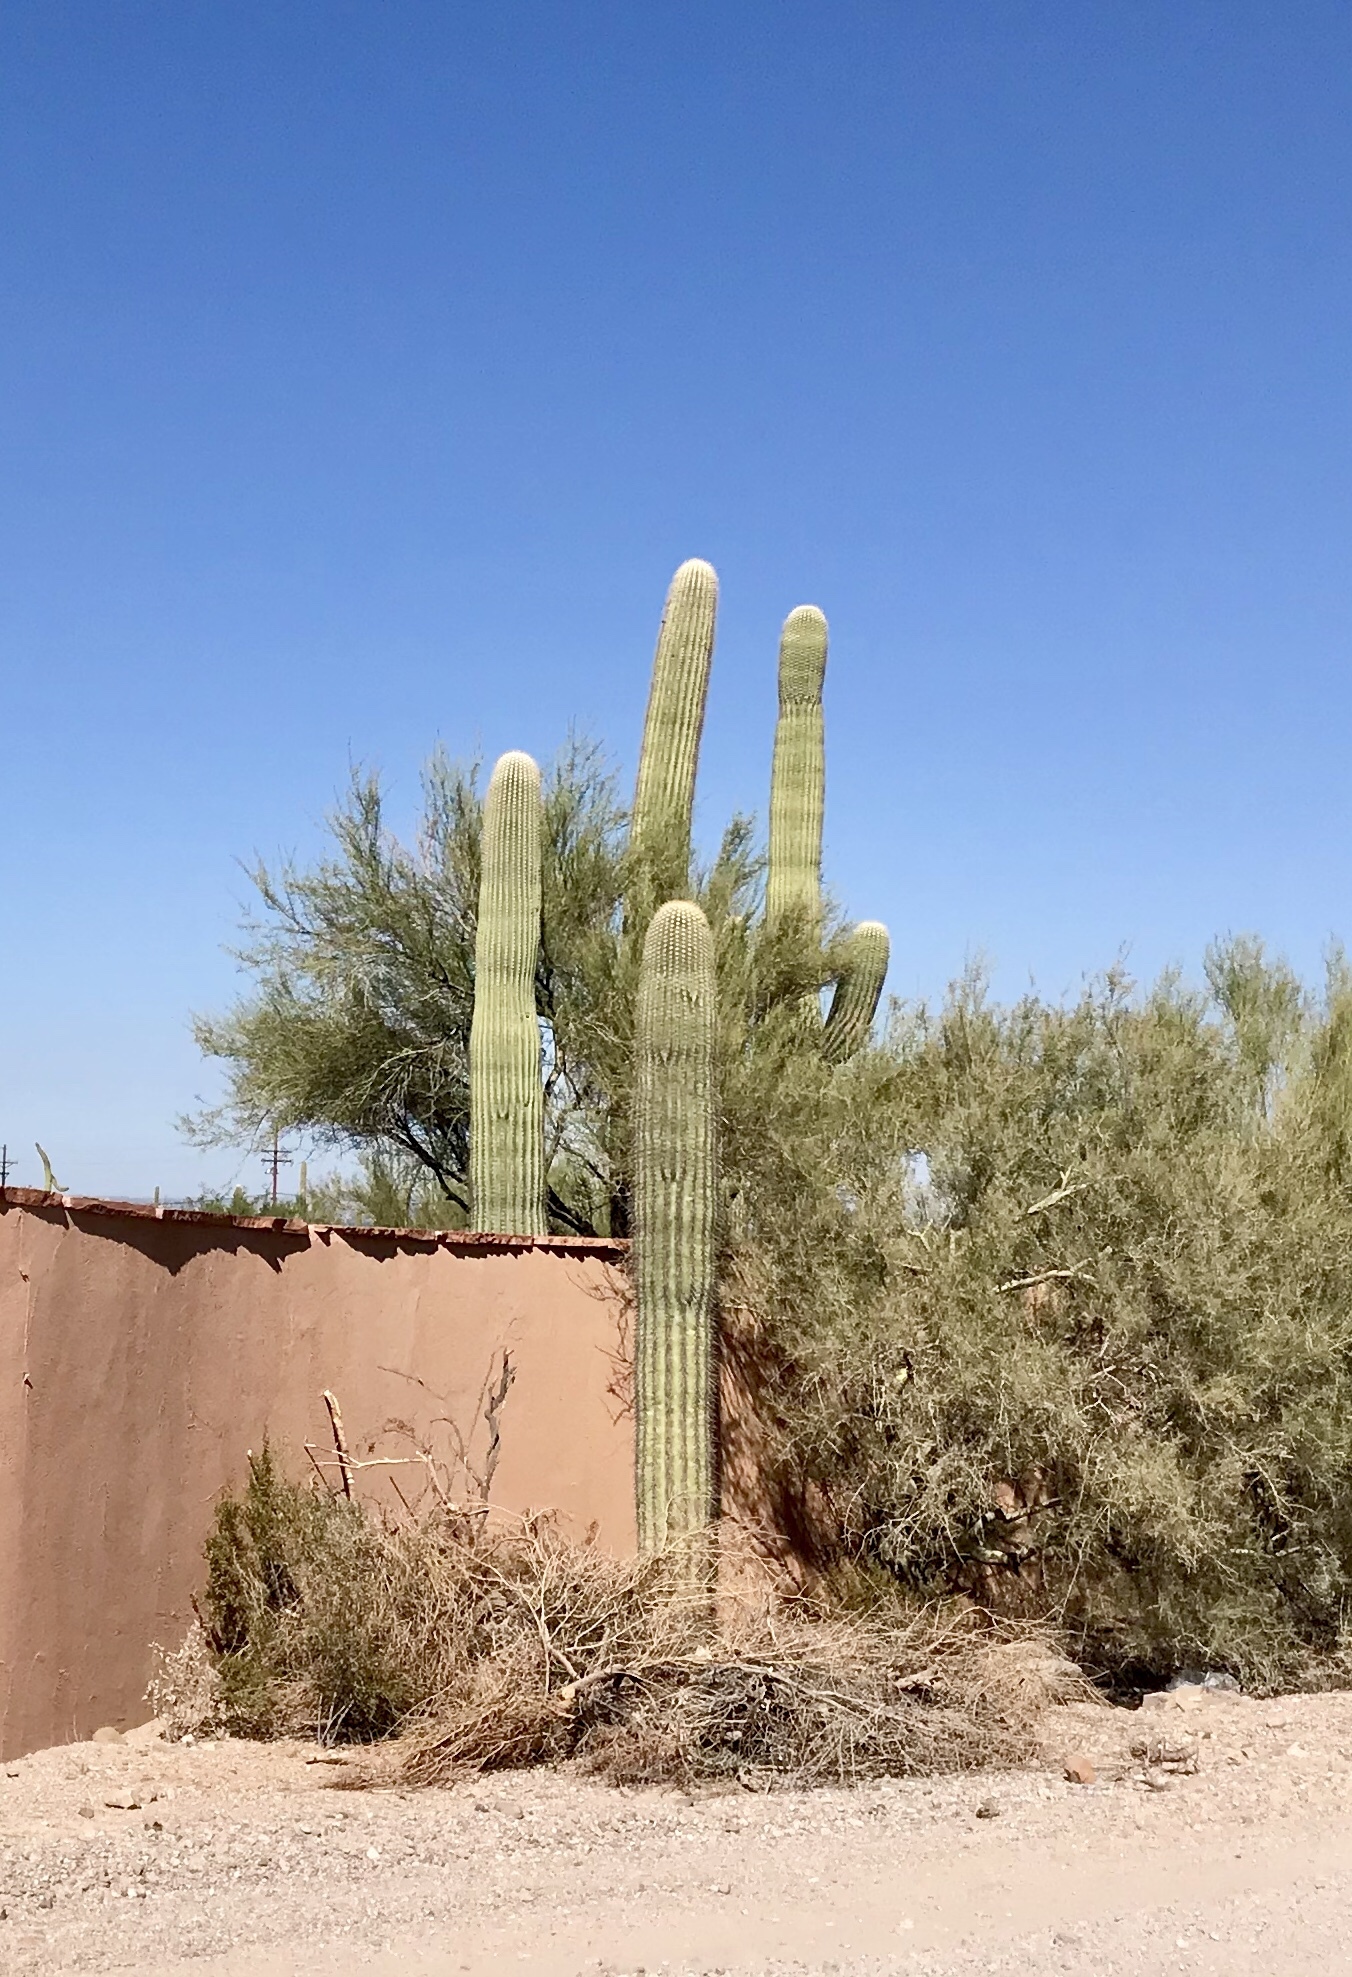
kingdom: Plantae
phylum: Tracheophyta
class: Magnoliopsida
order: Caryophyllales
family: Cactaceae
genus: Carnegiea
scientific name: Carnegiea gigantea
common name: Saguaro
